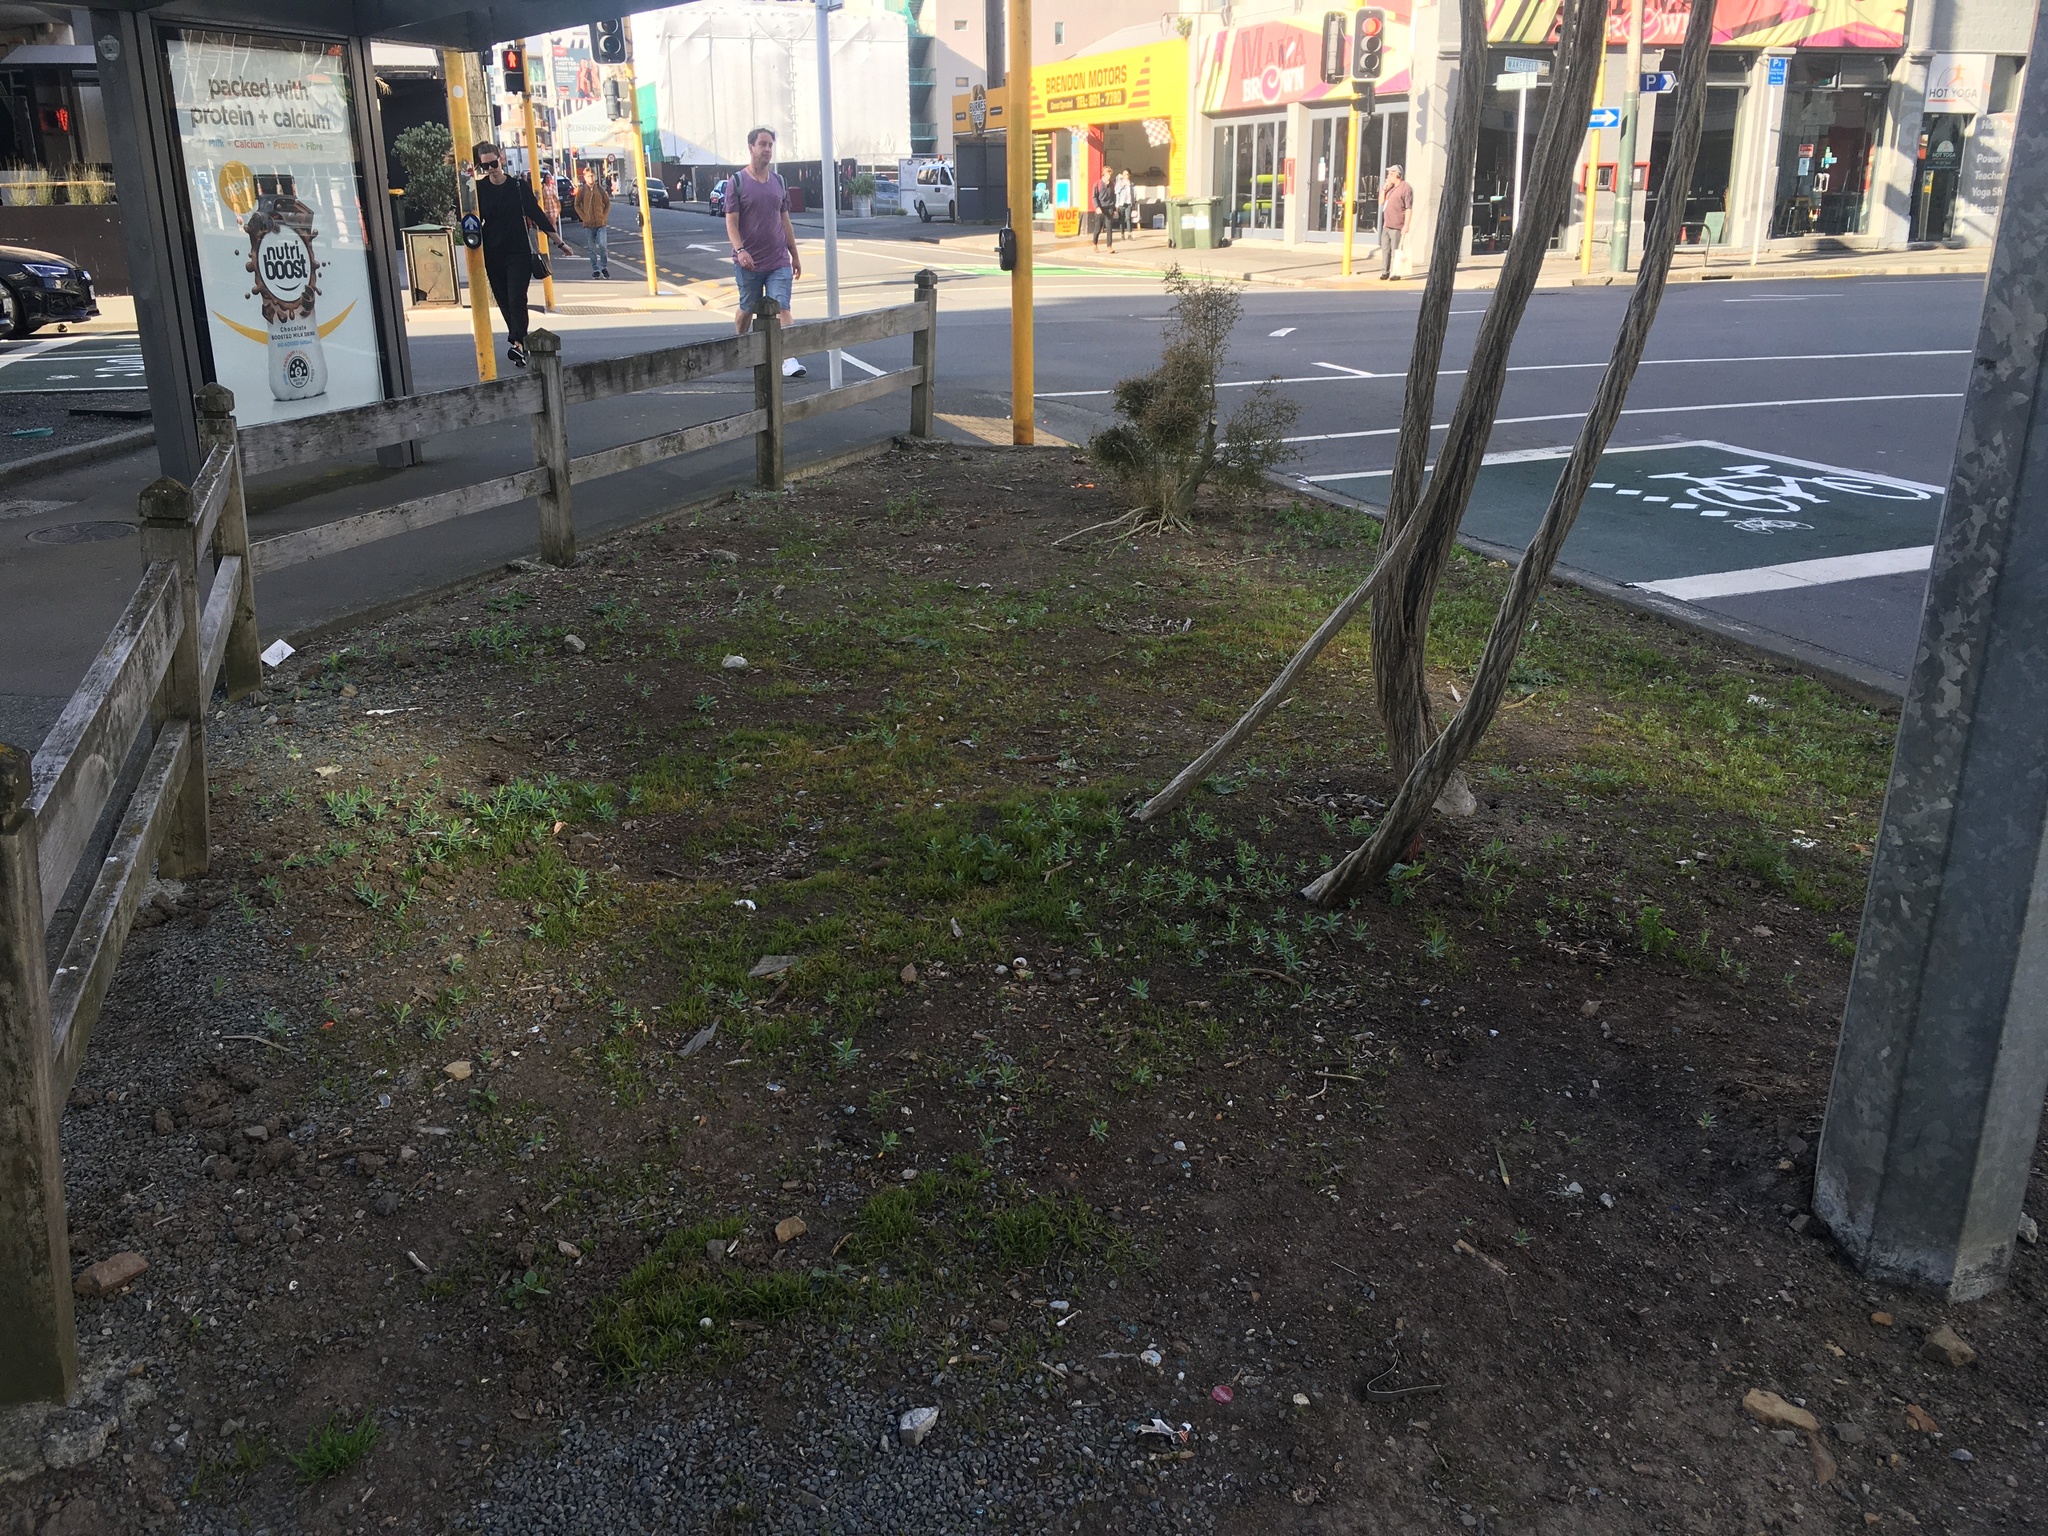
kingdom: Plantae
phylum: Tracheophyta
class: Magnoliopsida
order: Malpighiales
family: Euphorbiaceae
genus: Euphorbia
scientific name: Euphorbia glauca
